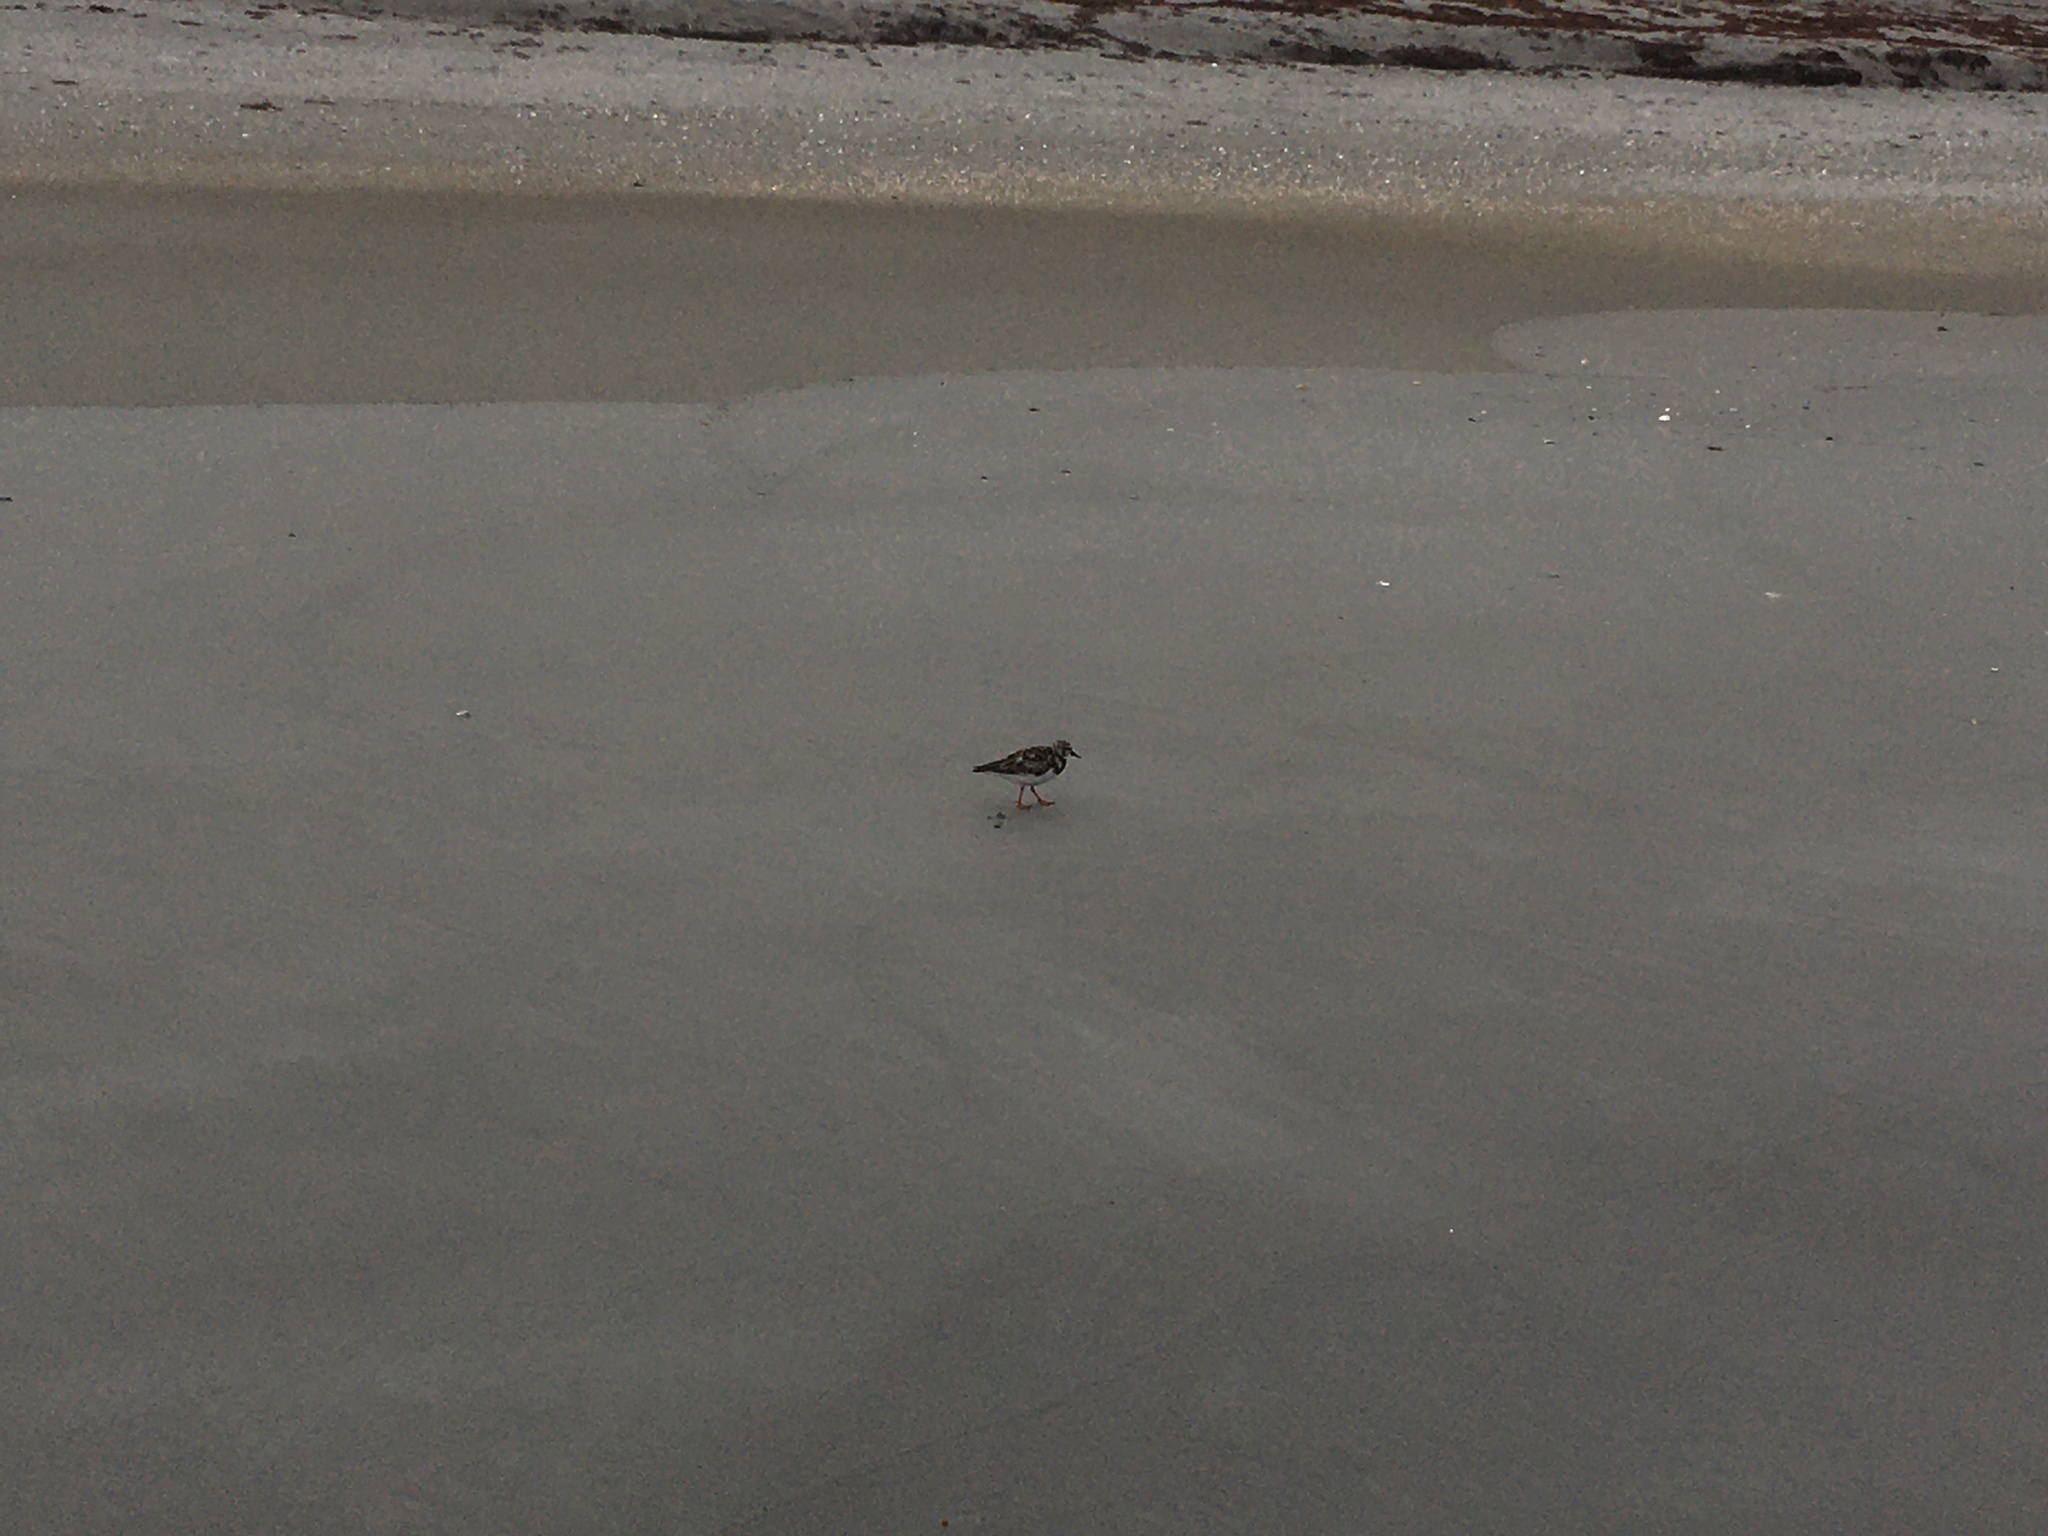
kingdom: Animalia
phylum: Chordata
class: Aves
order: Charadriiformes
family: Scolopacidae
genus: Arenaria
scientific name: Arenaria interpres
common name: Ruddy turnstone
